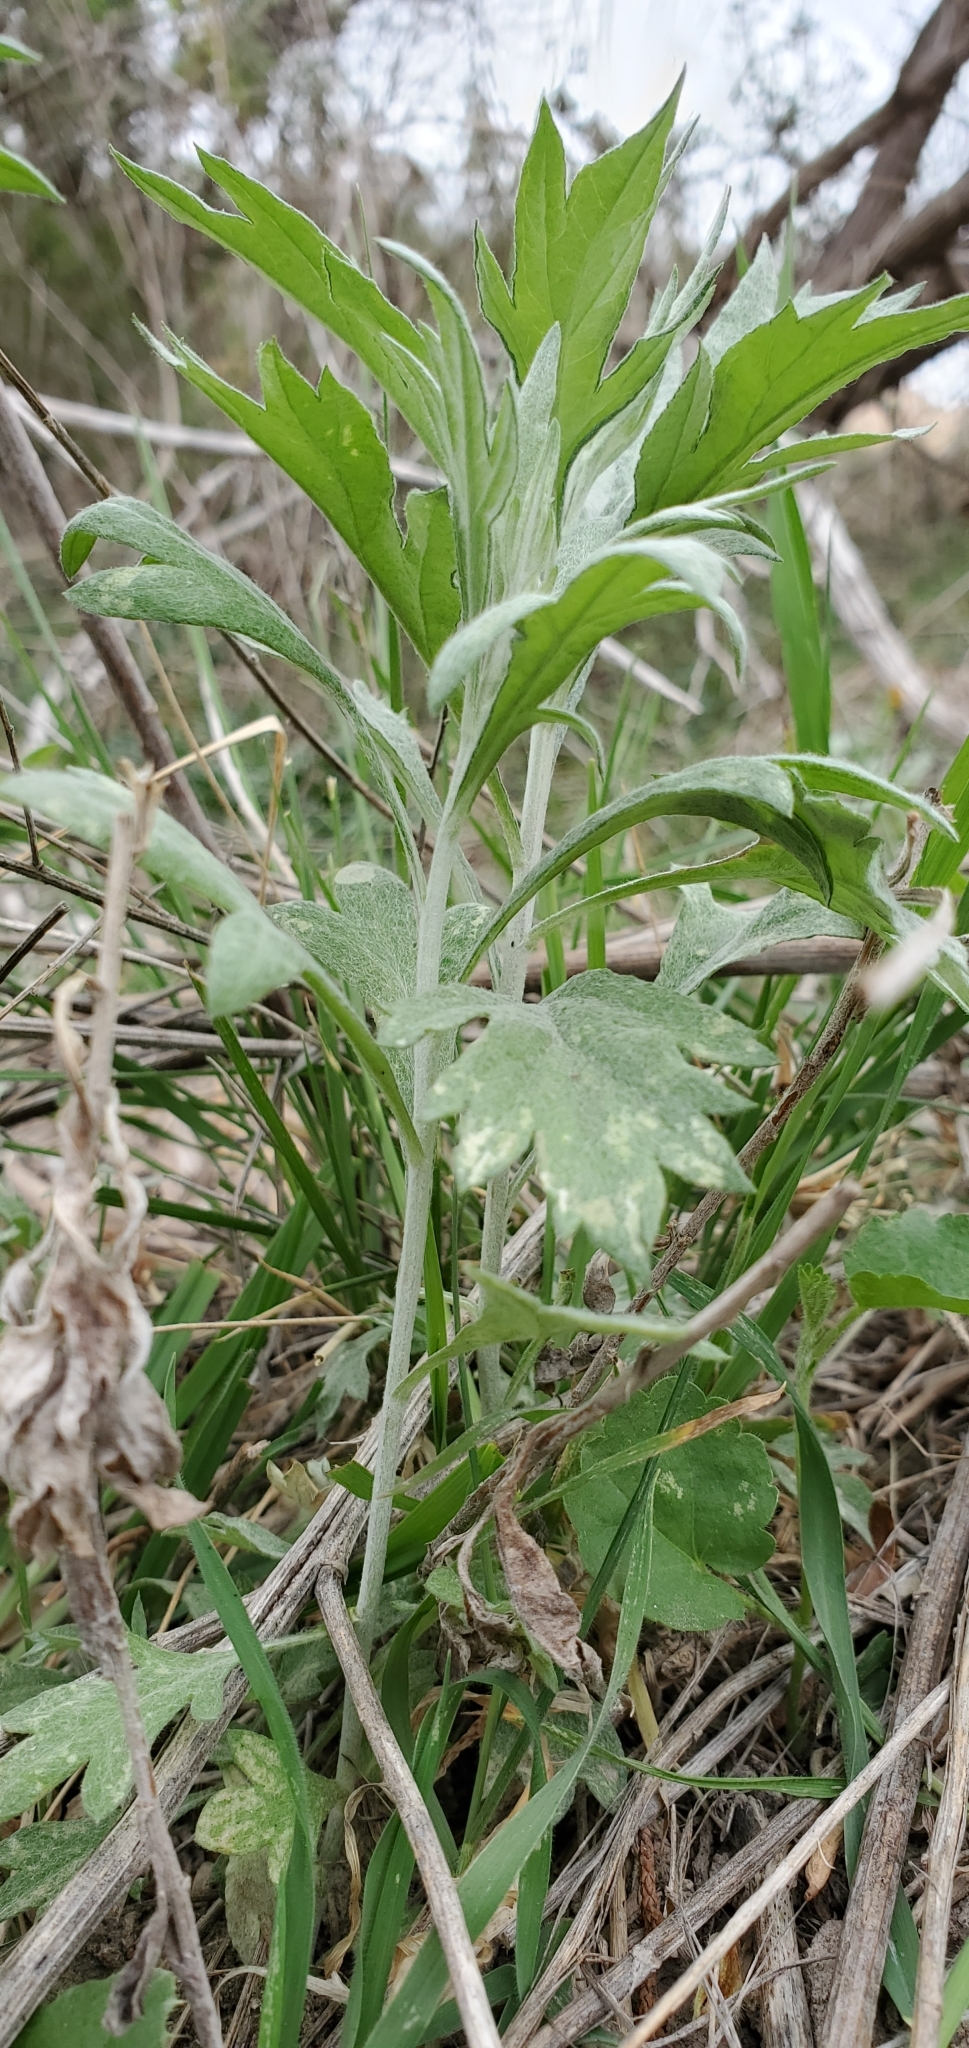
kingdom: Plantae
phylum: Tracheophyta
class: Magnoliopsida
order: Asterales
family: Asteraceae
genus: Artemisia
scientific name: Artemisia ludoviciana
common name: Western mugwort
